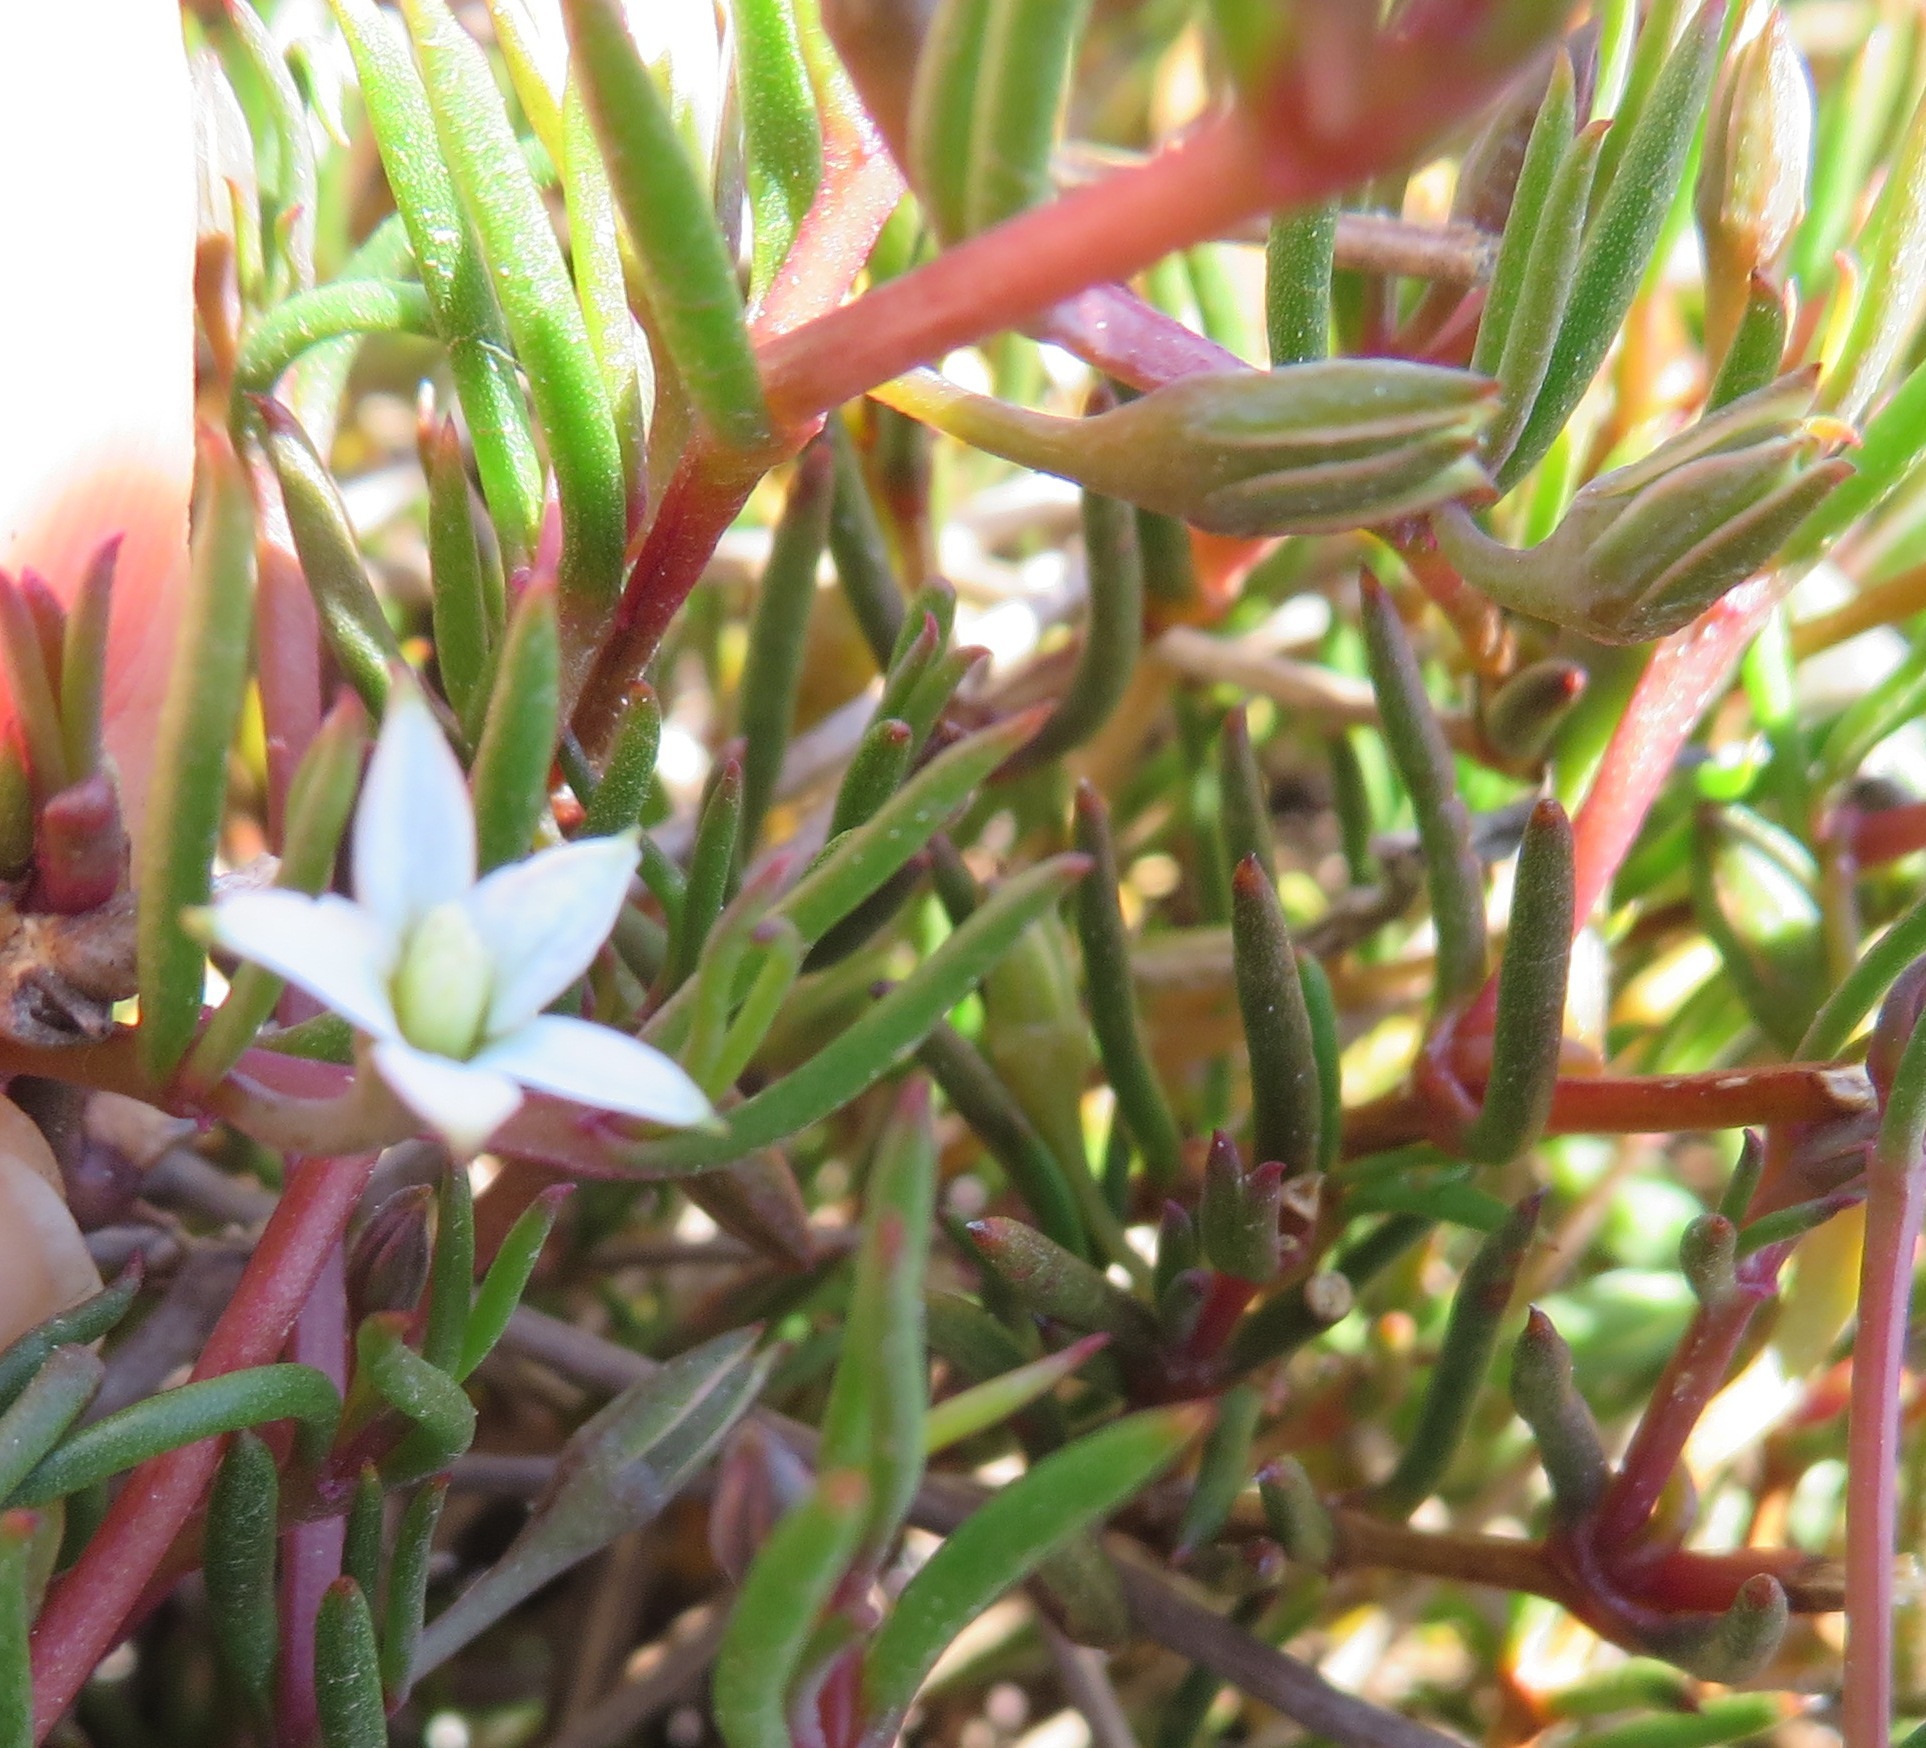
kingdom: Plantae
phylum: Tracheophyta
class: Magnoliopsida
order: Caryophyllales
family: Aizoaceae
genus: Acrosanthes
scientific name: Acrosanthes teretifolia
